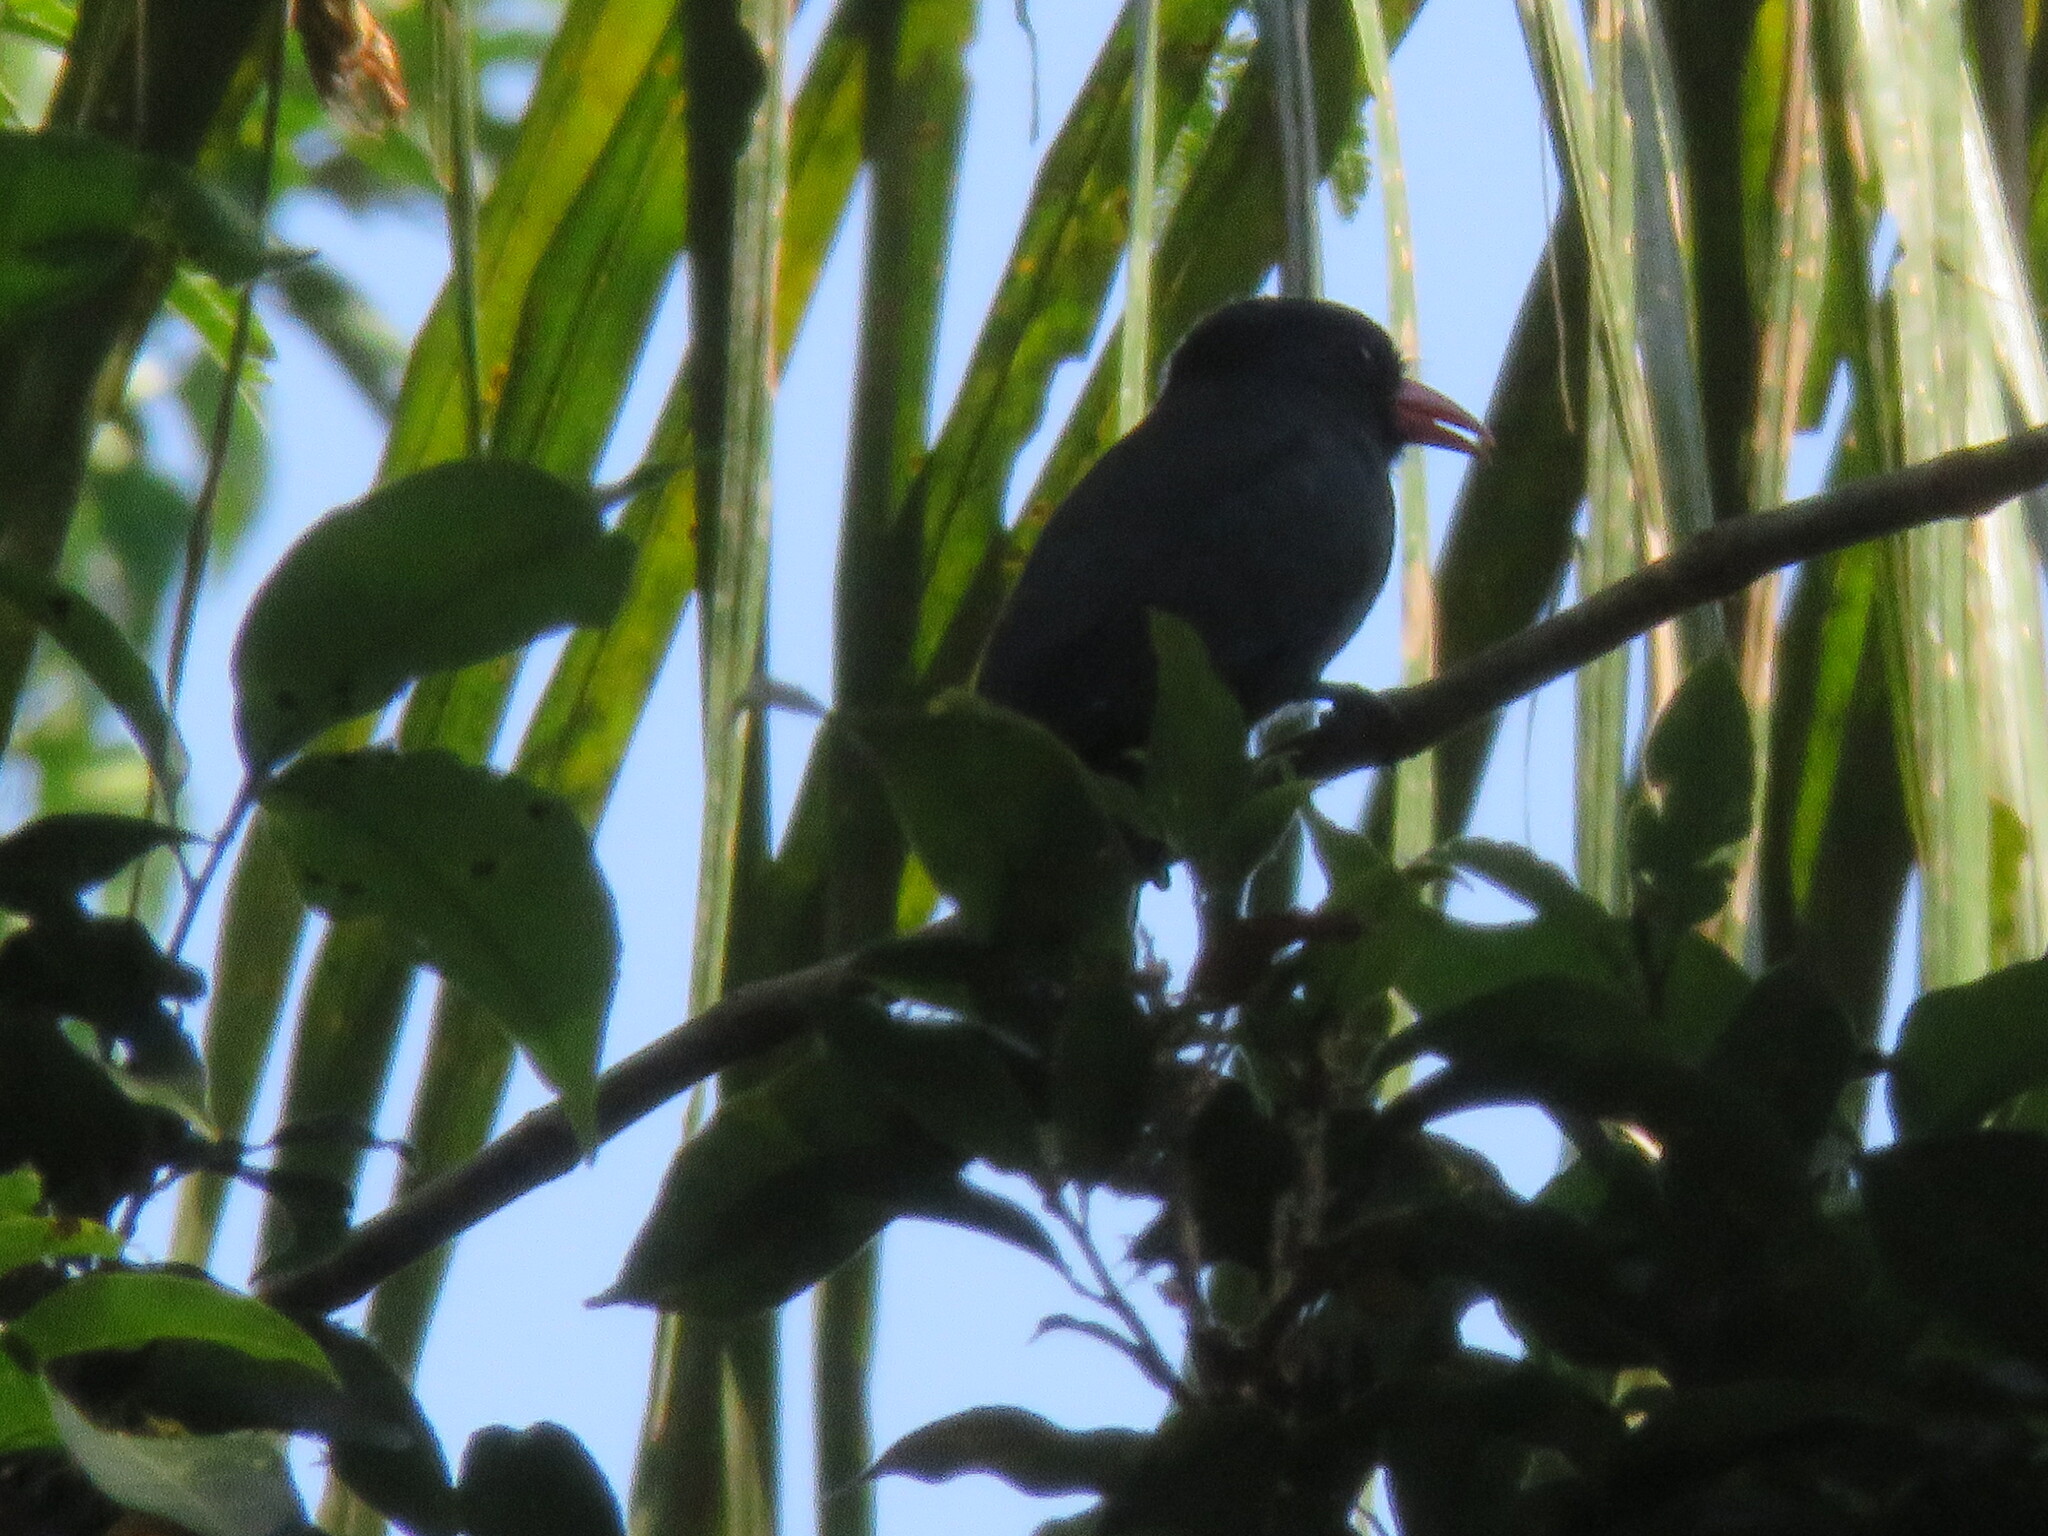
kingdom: Animalia
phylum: Chordata
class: Aves
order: Piciformes
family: Bucconidae
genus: Monasa
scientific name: Monasa nigrifrons
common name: Black-fronted nunbird
